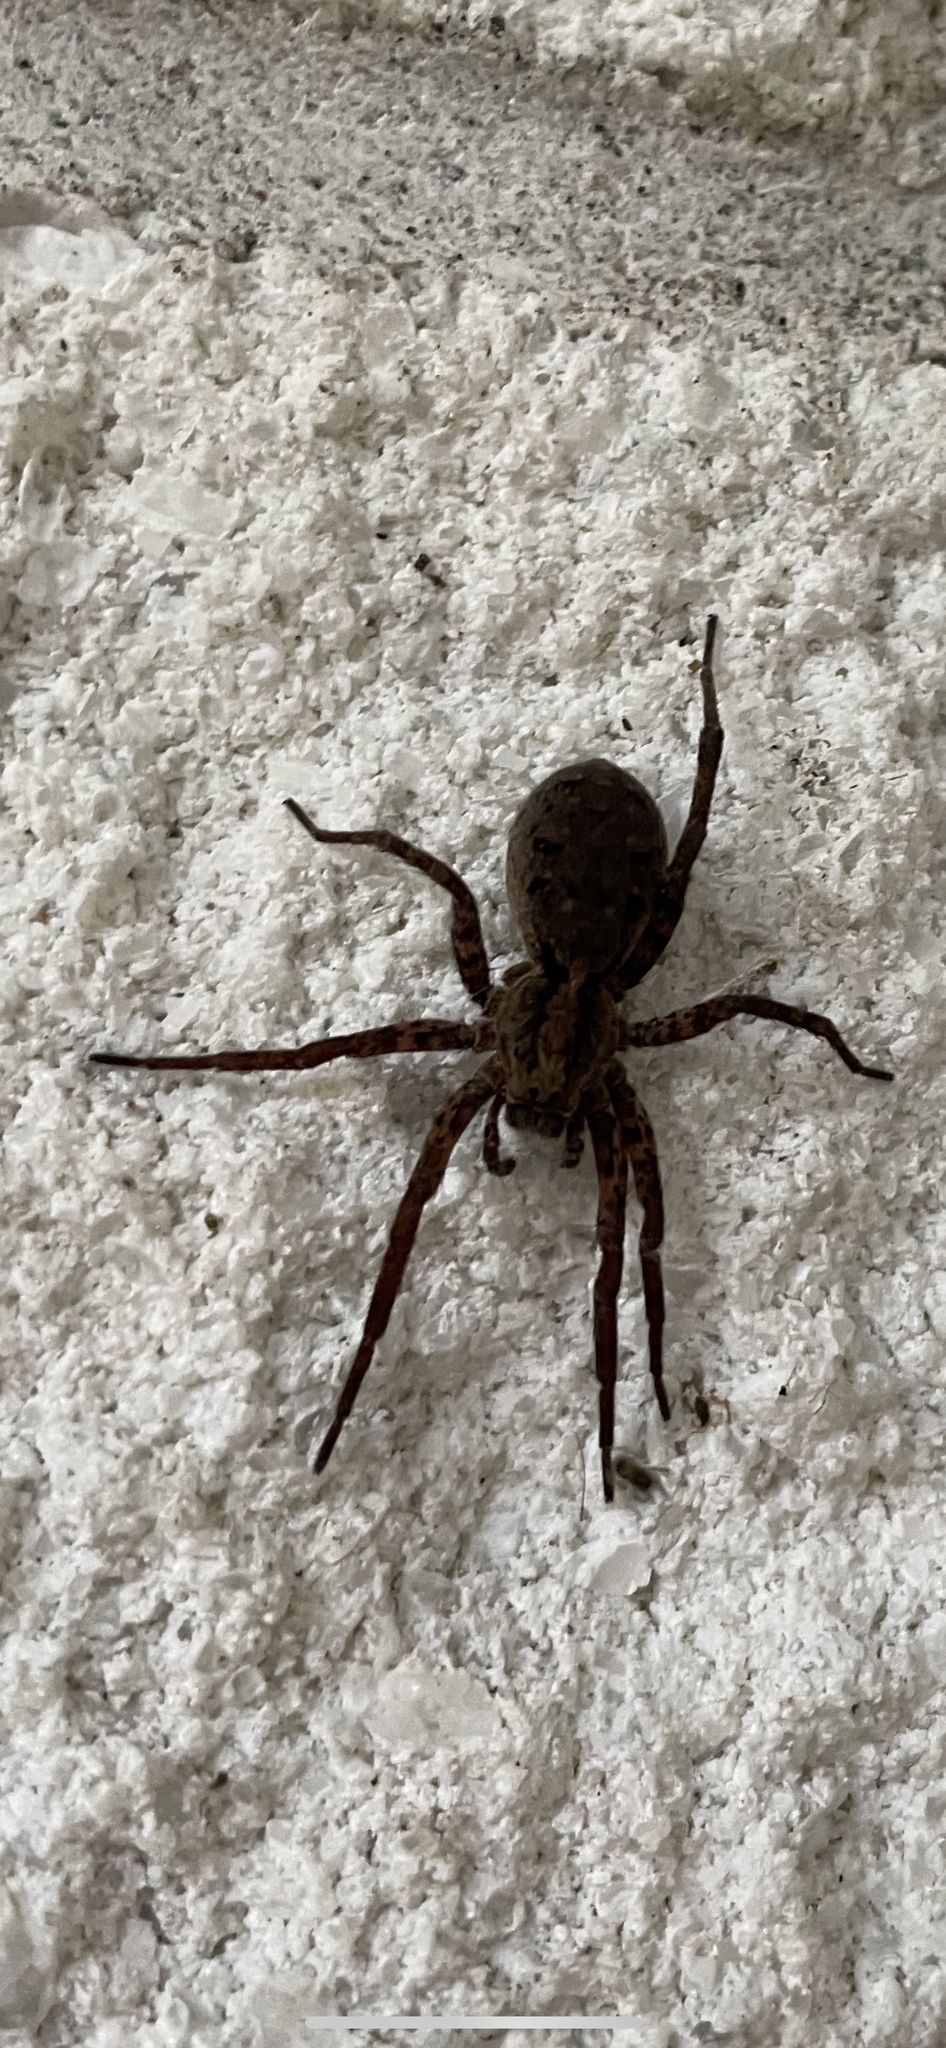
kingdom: Animalia
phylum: Arthropoda
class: Arachnida
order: Araneae
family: Lycosidae
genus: Gladicosa
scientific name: Gladicosa gulosa
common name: Drumming sword wolf spider
